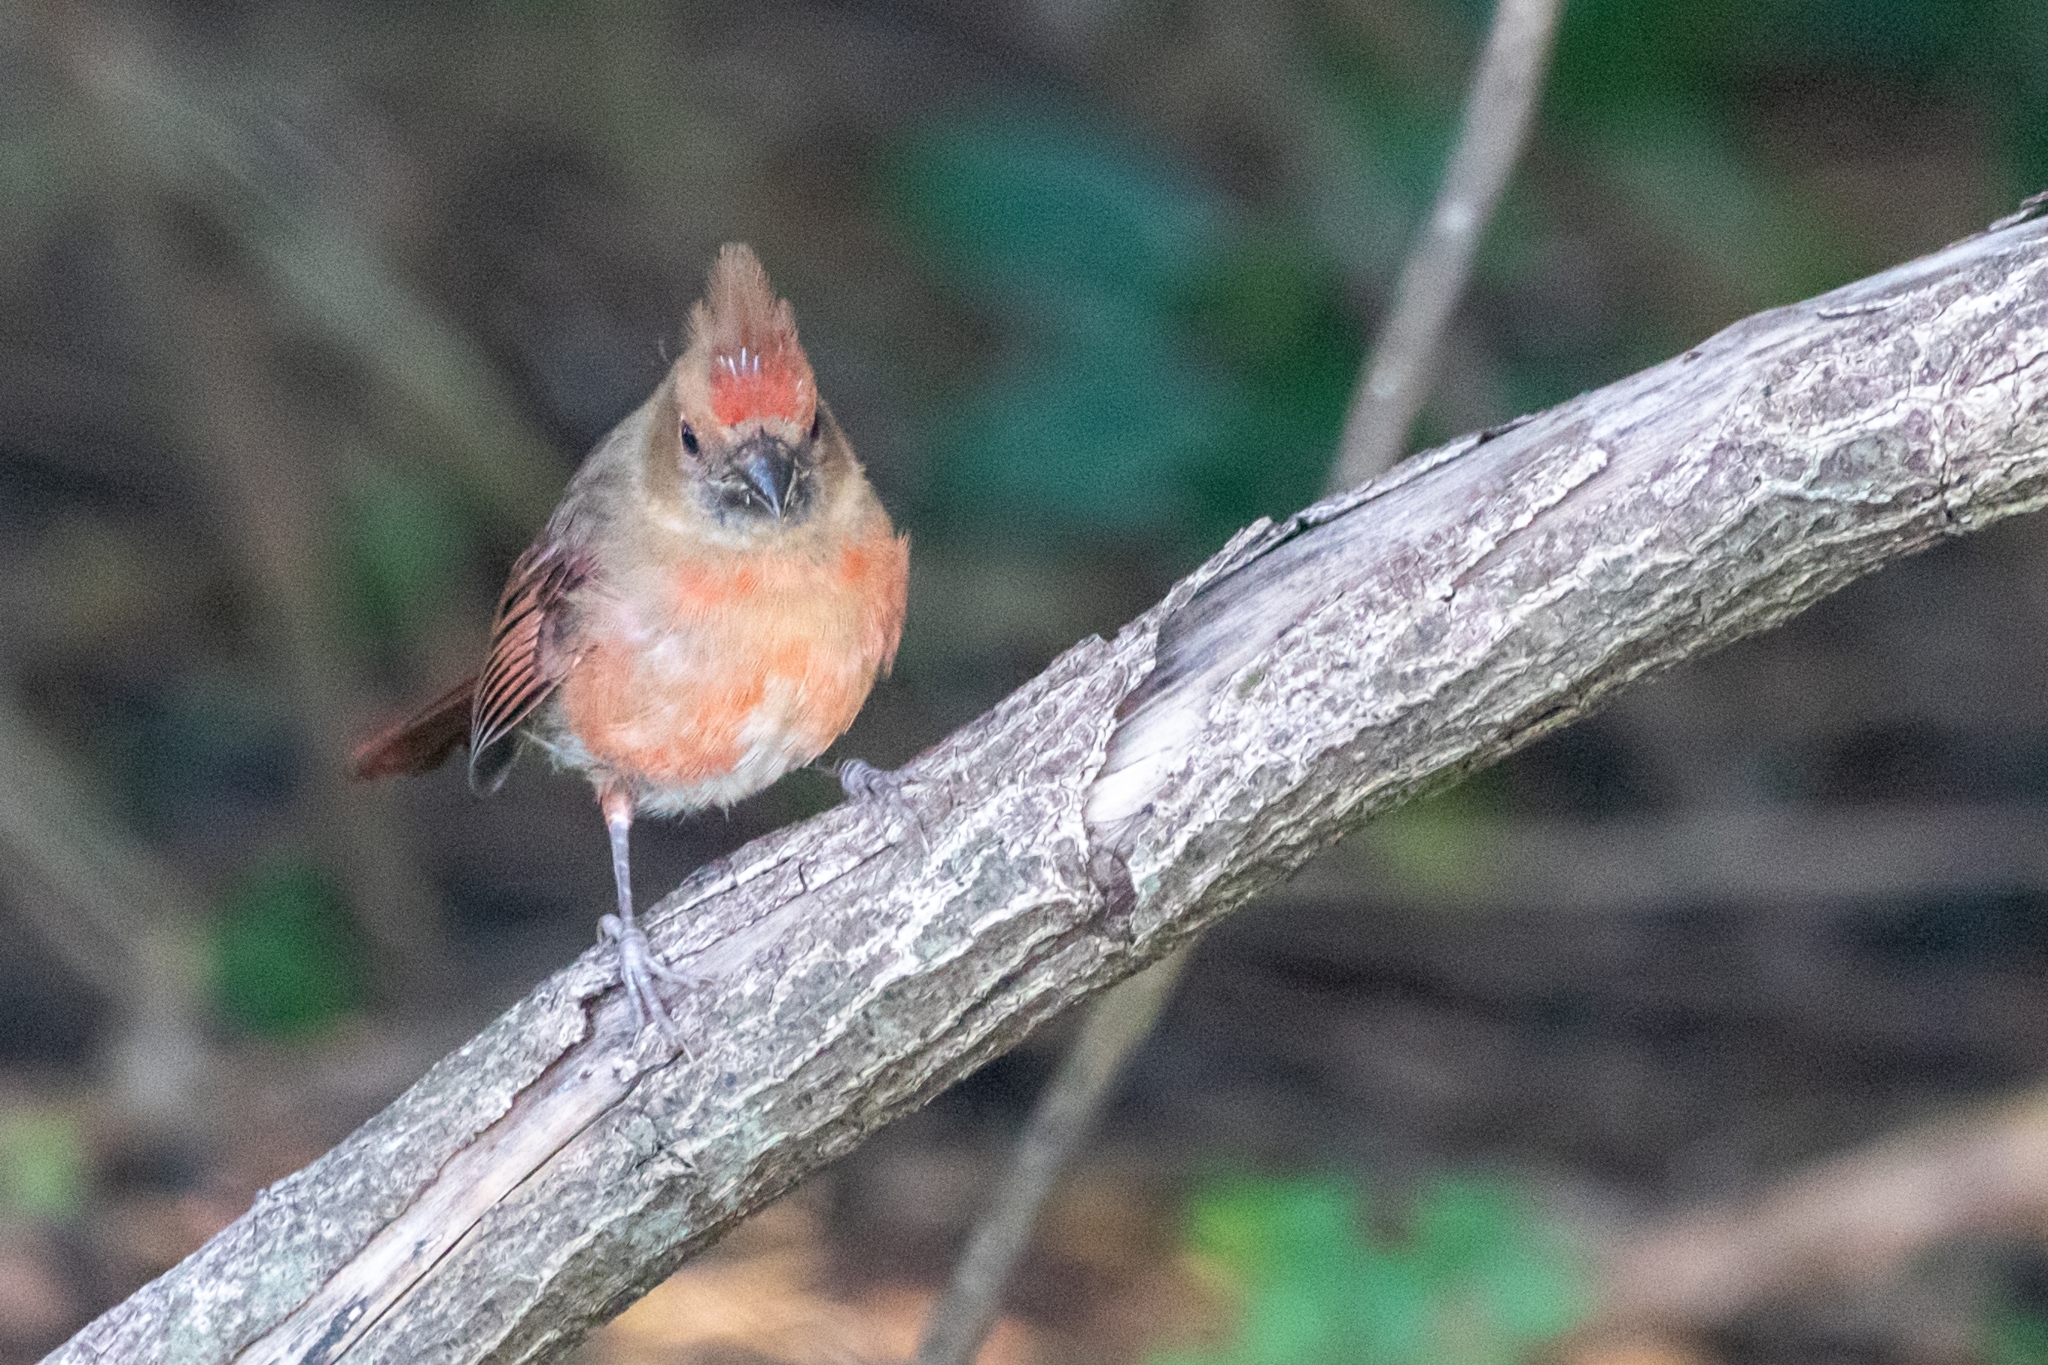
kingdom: Animalia
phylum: Chordata
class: Aves
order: Passeriformes
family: Cardinalidae
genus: Cardinalis
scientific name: Cardinalis cardinalis
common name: Northern cardinal
